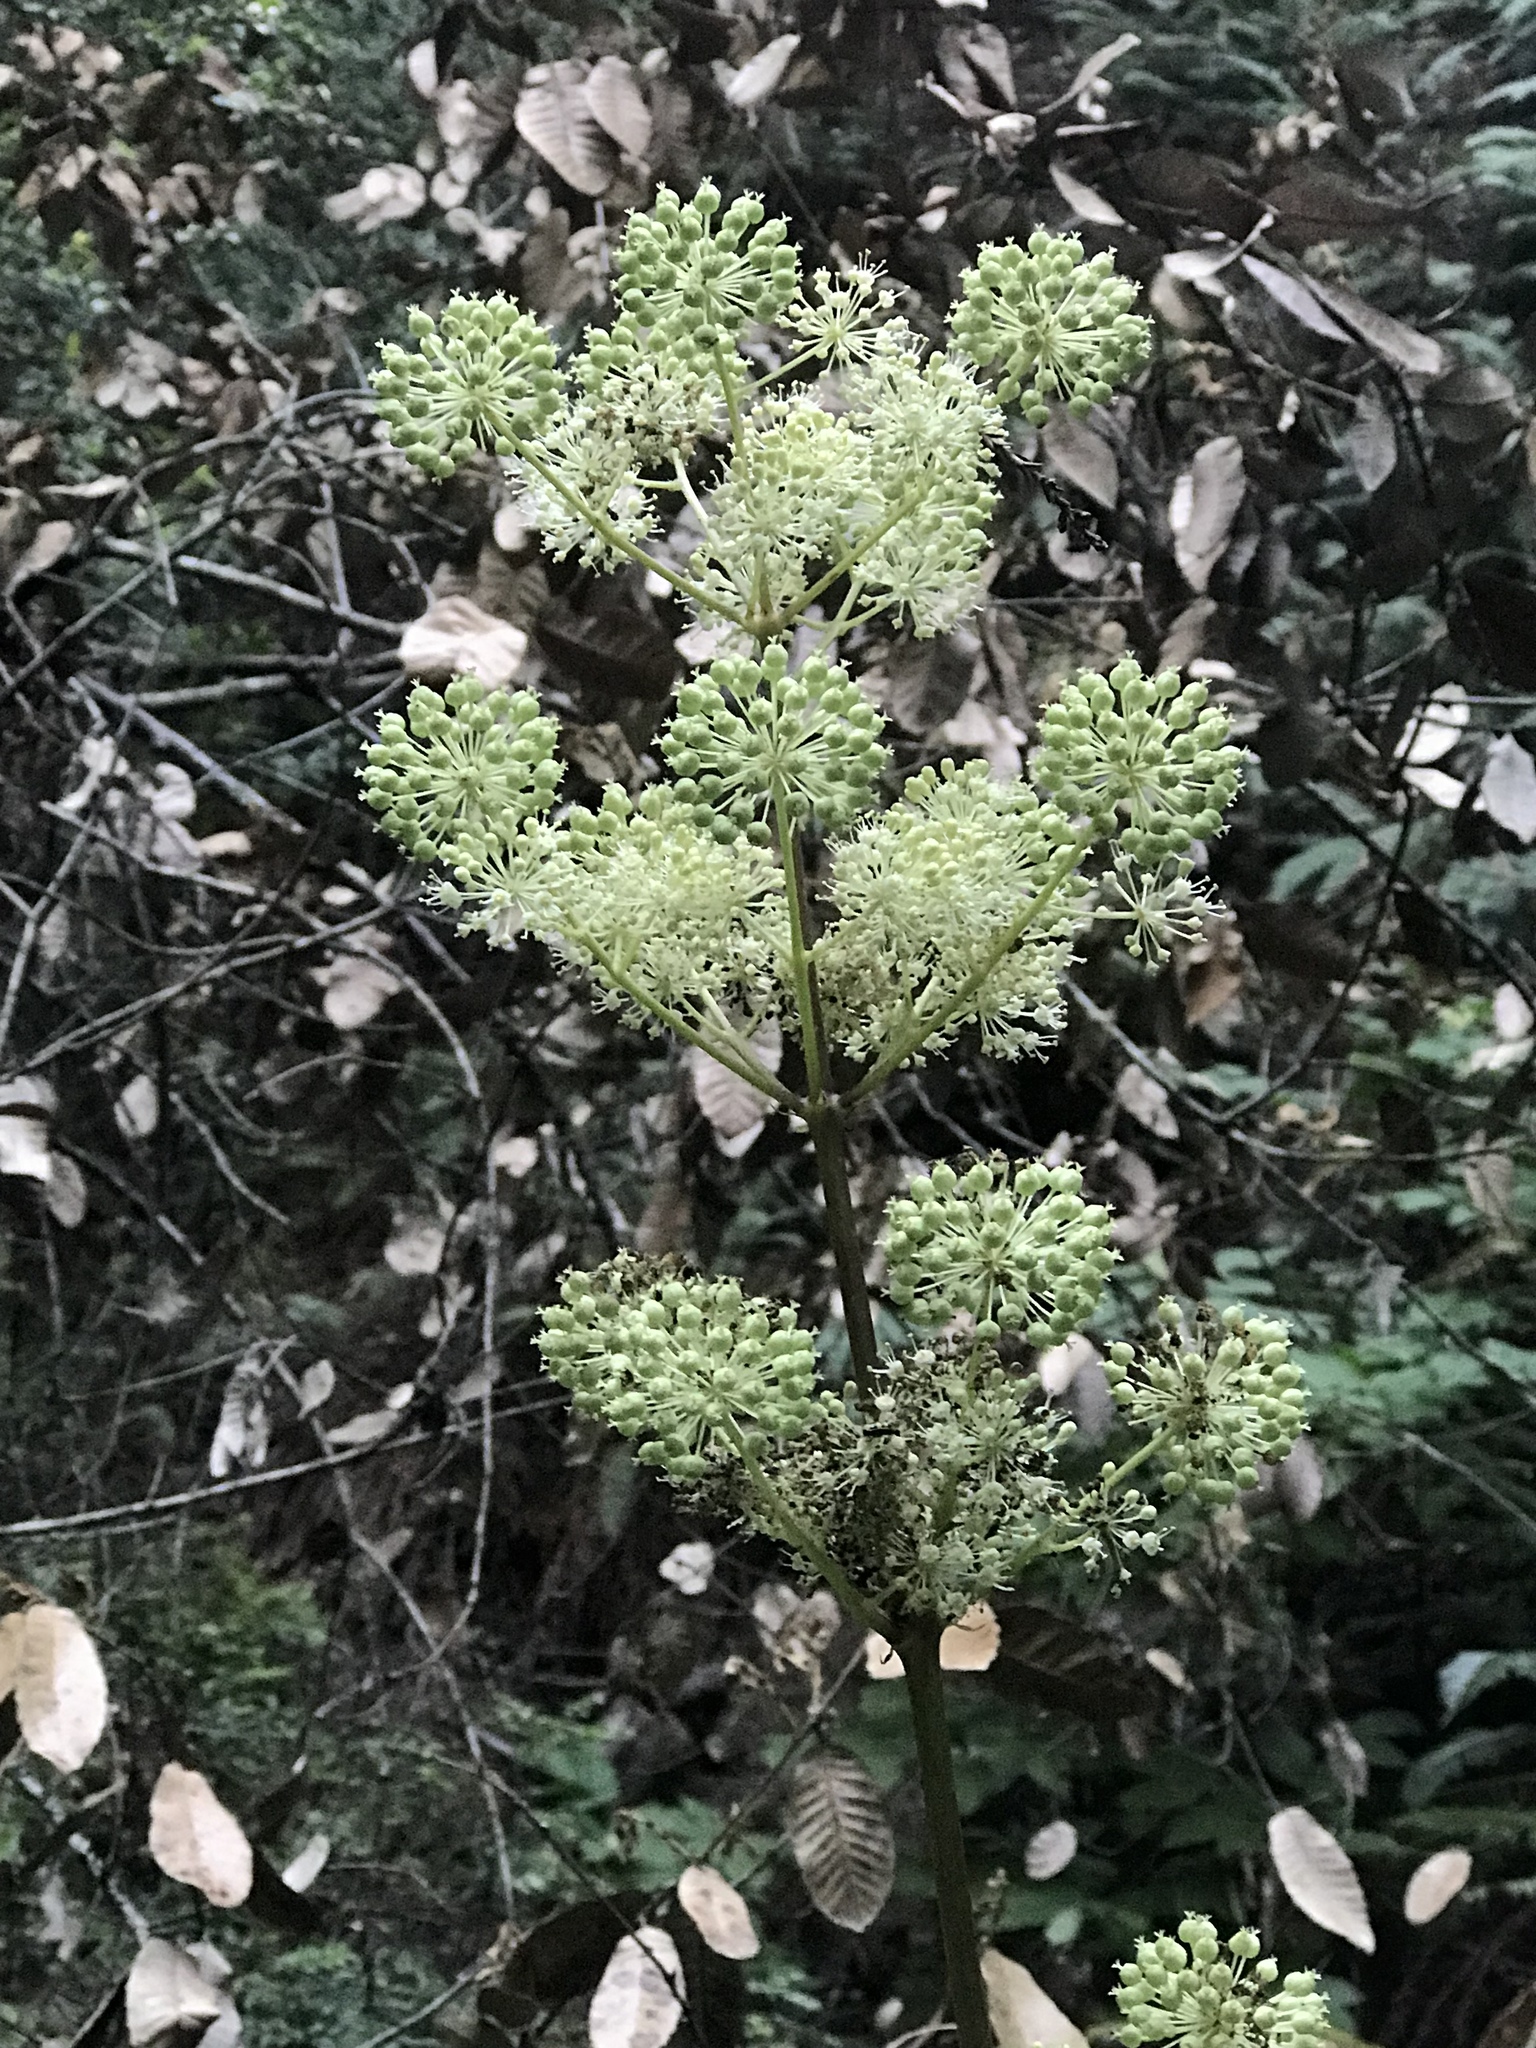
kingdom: Plantae
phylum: Tracheophyta
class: Magnoliopsida
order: Apiales
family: Araliaceae
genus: Aralia
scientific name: Aralia californica
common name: California-ginseng
